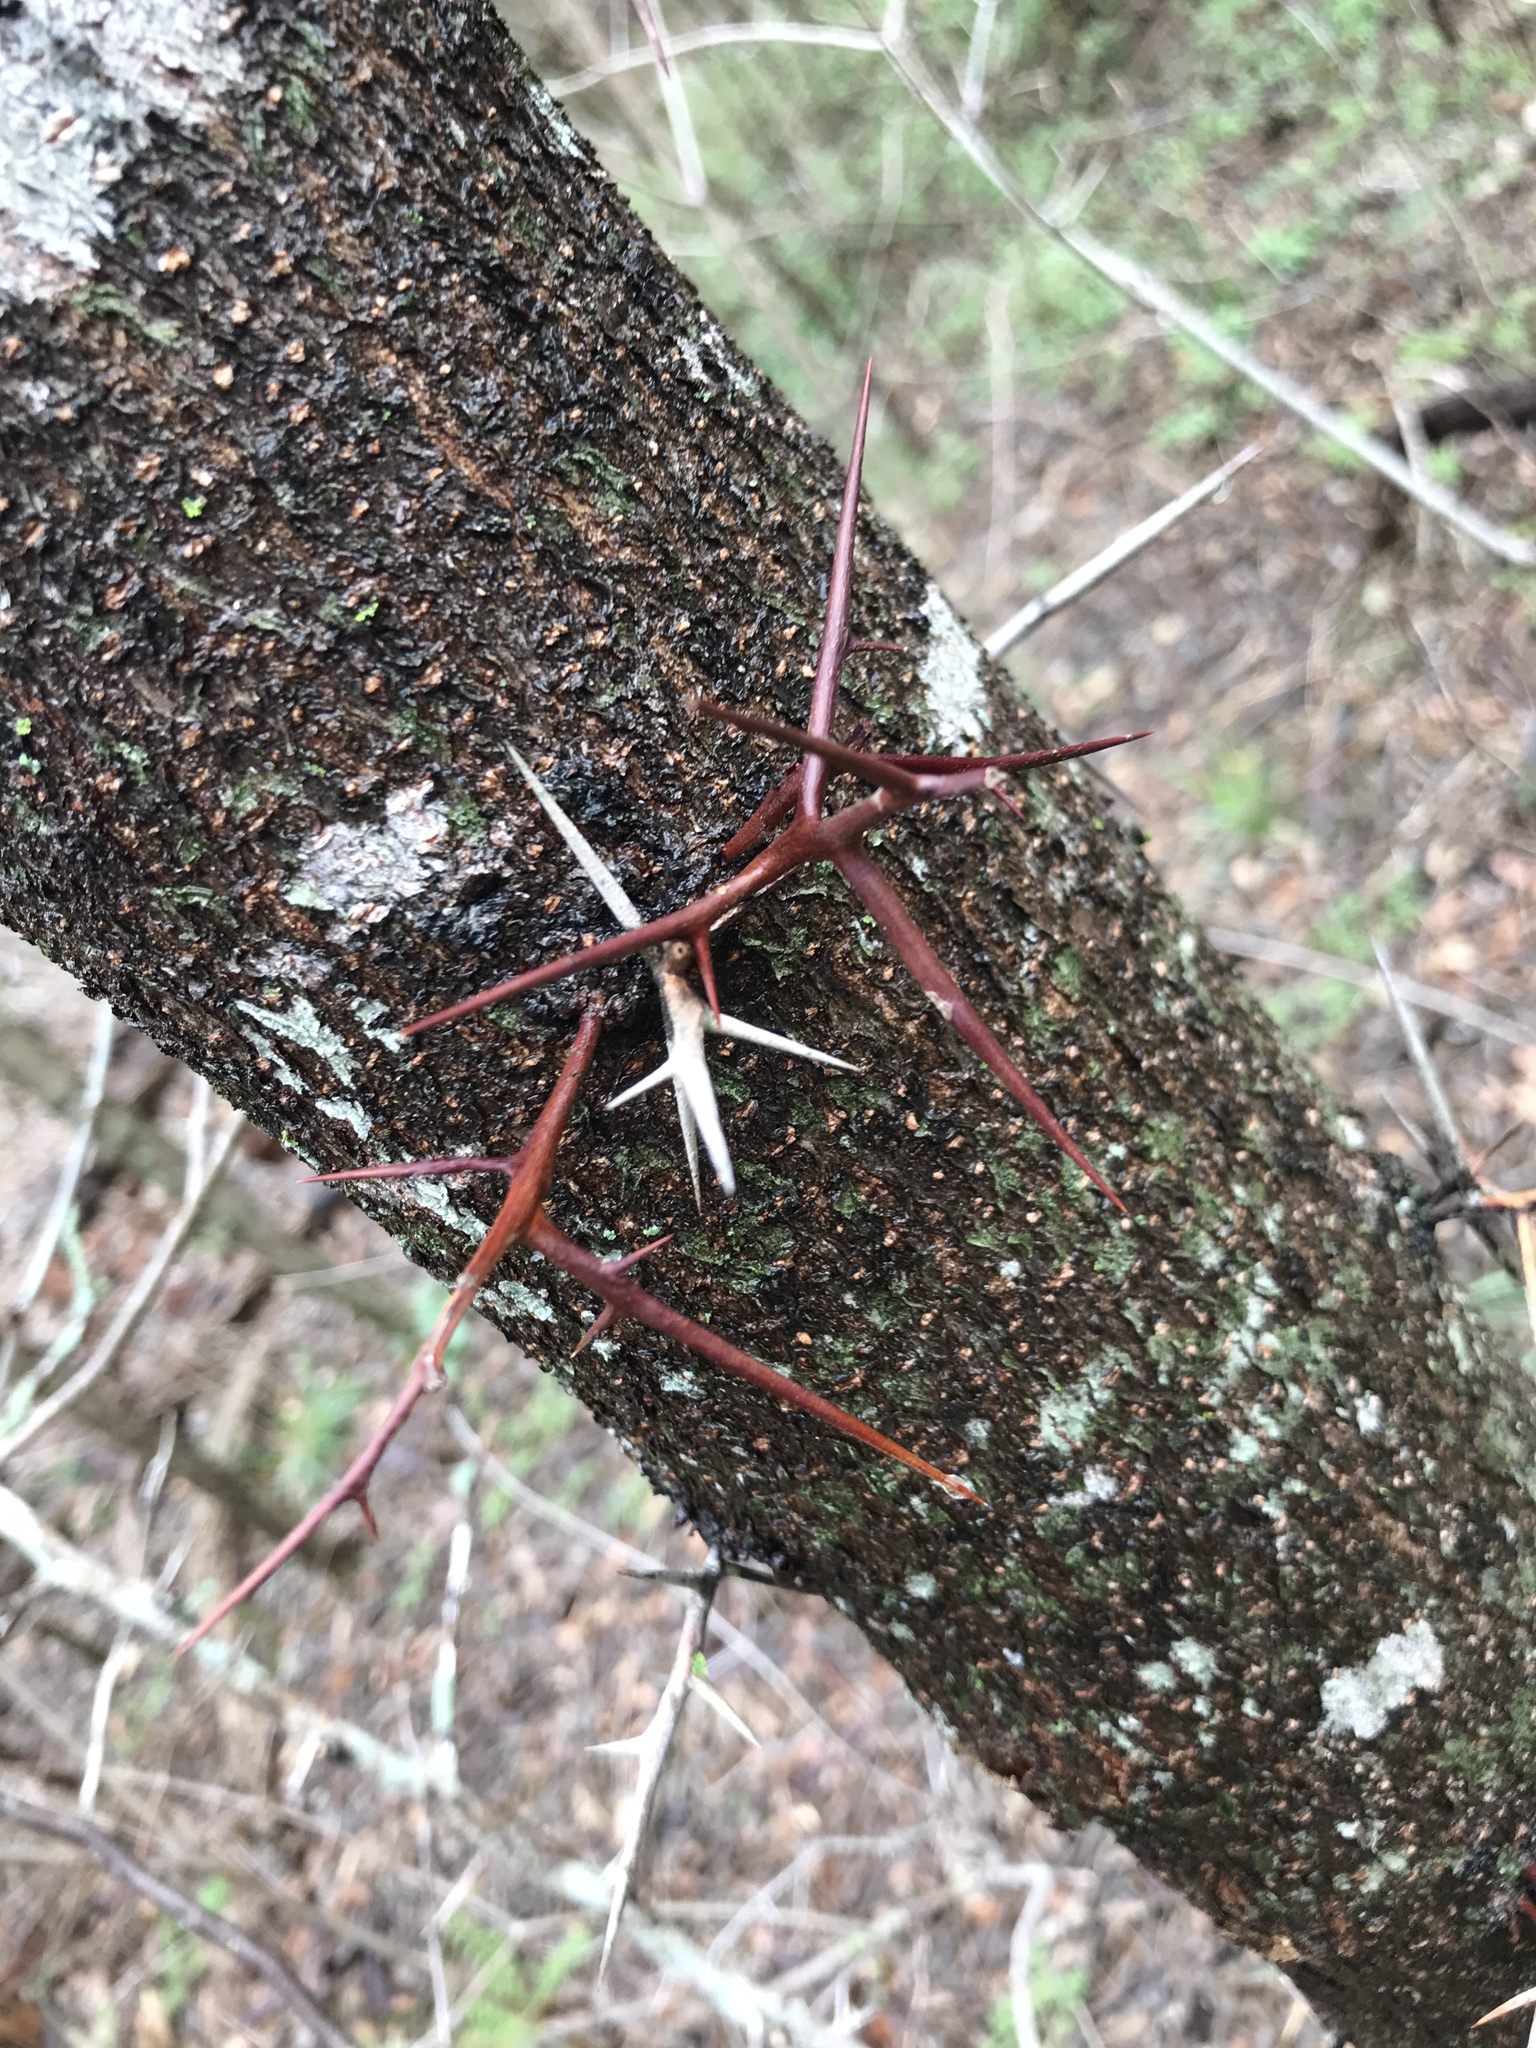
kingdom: Plantae
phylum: Tracheophyta
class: Magnoliopsida
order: Fabales
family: Fabaceae
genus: Gleditsia
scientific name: Gleditsia triacanthos
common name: Common honeylocust
